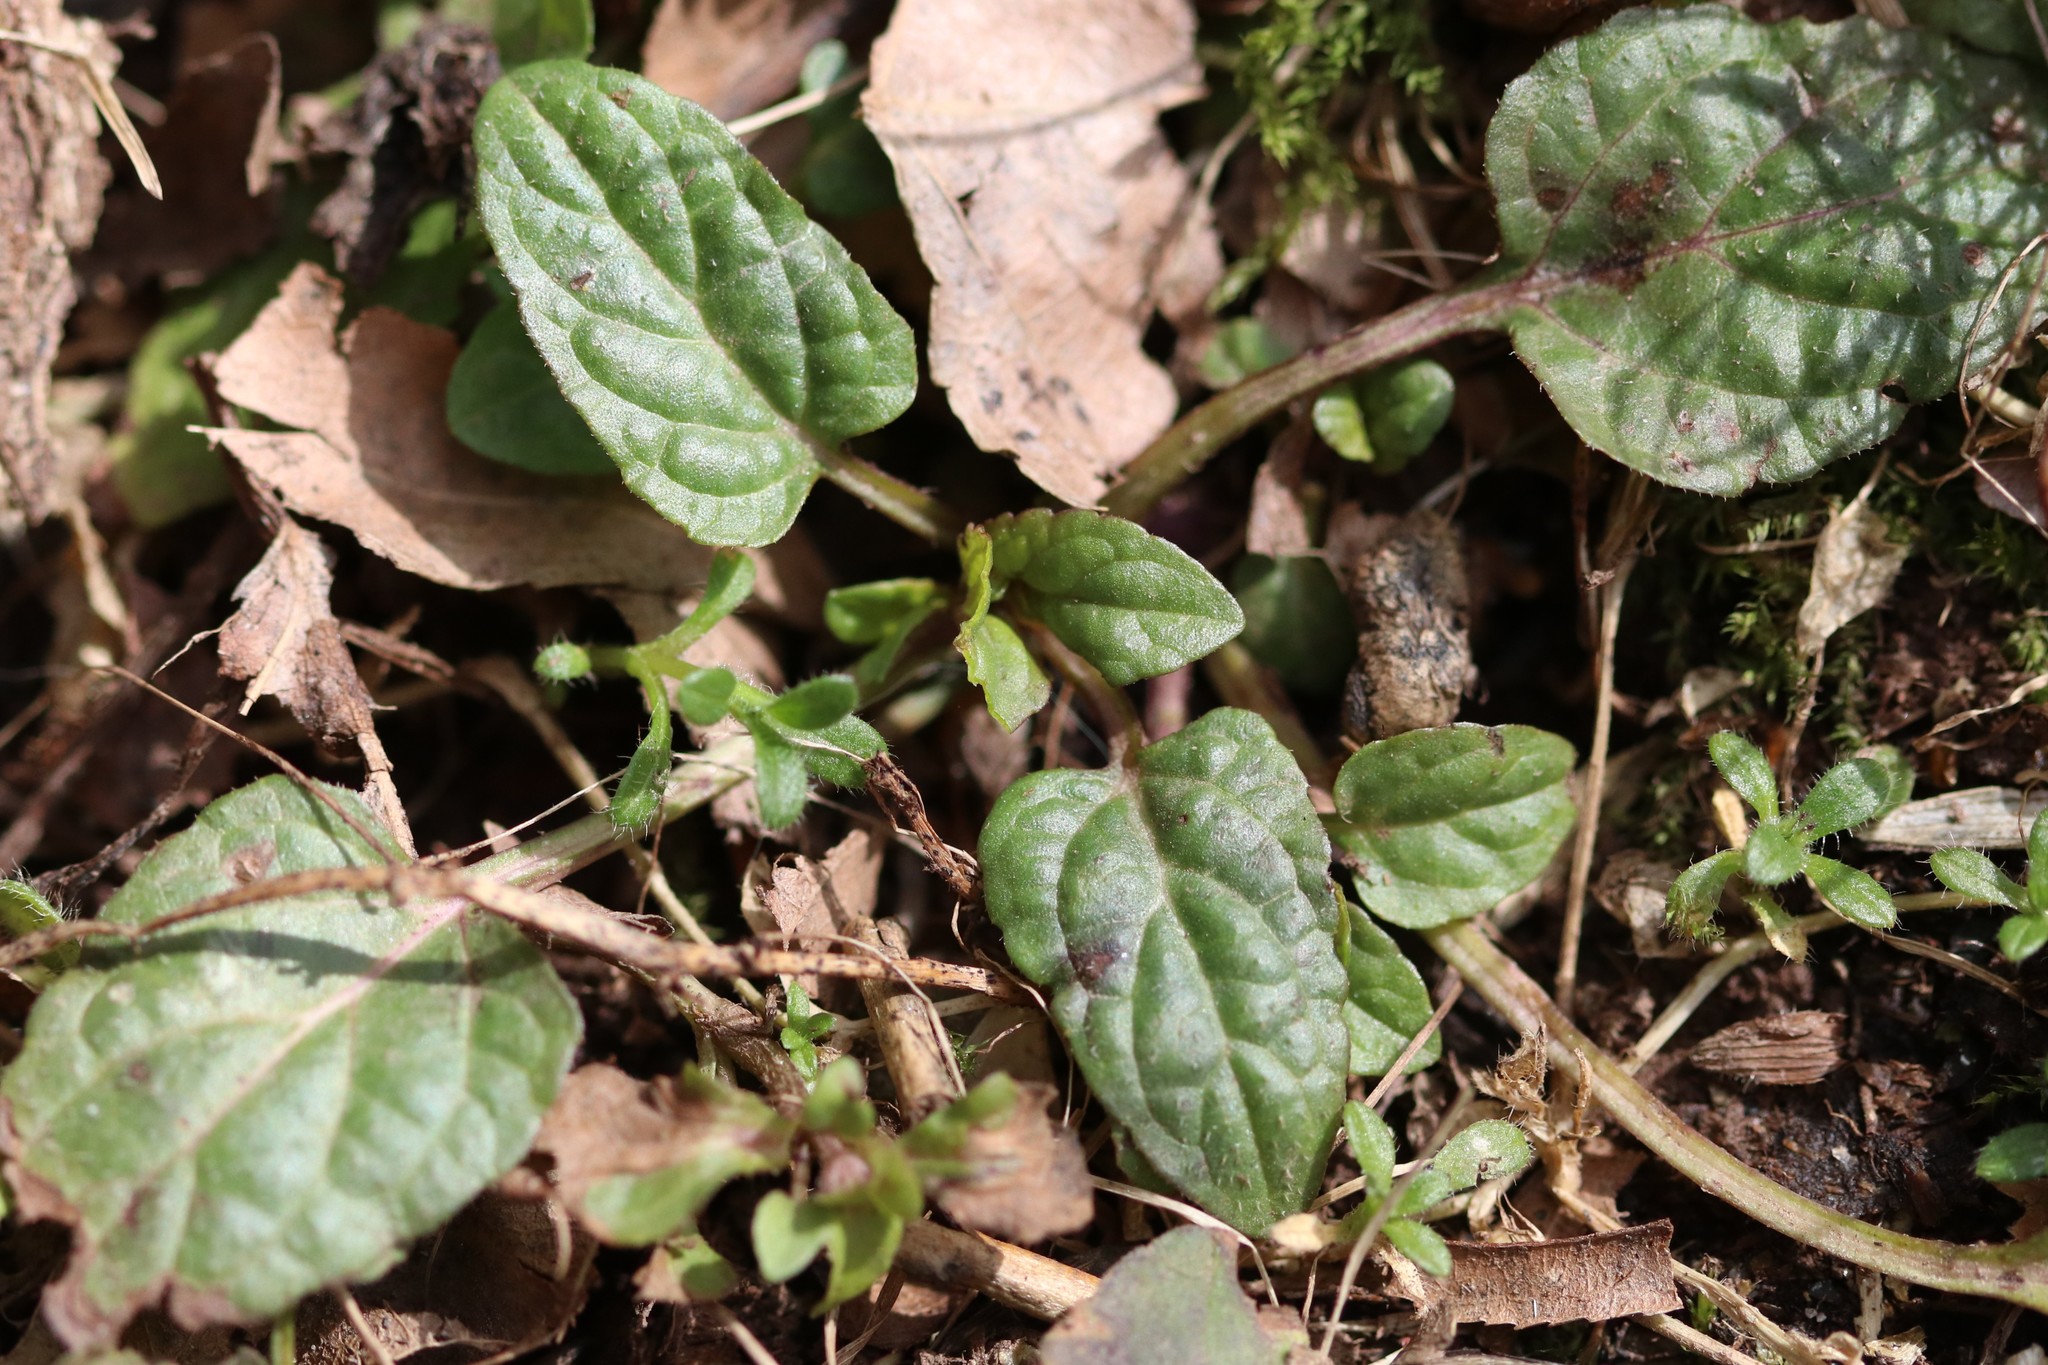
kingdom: Plantae
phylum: Tracheophyta
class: Magnoliopsida
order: Lamiales
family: Lamiaceae
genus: Prunella
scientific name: Prunella vulgaris
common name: Heal-all
